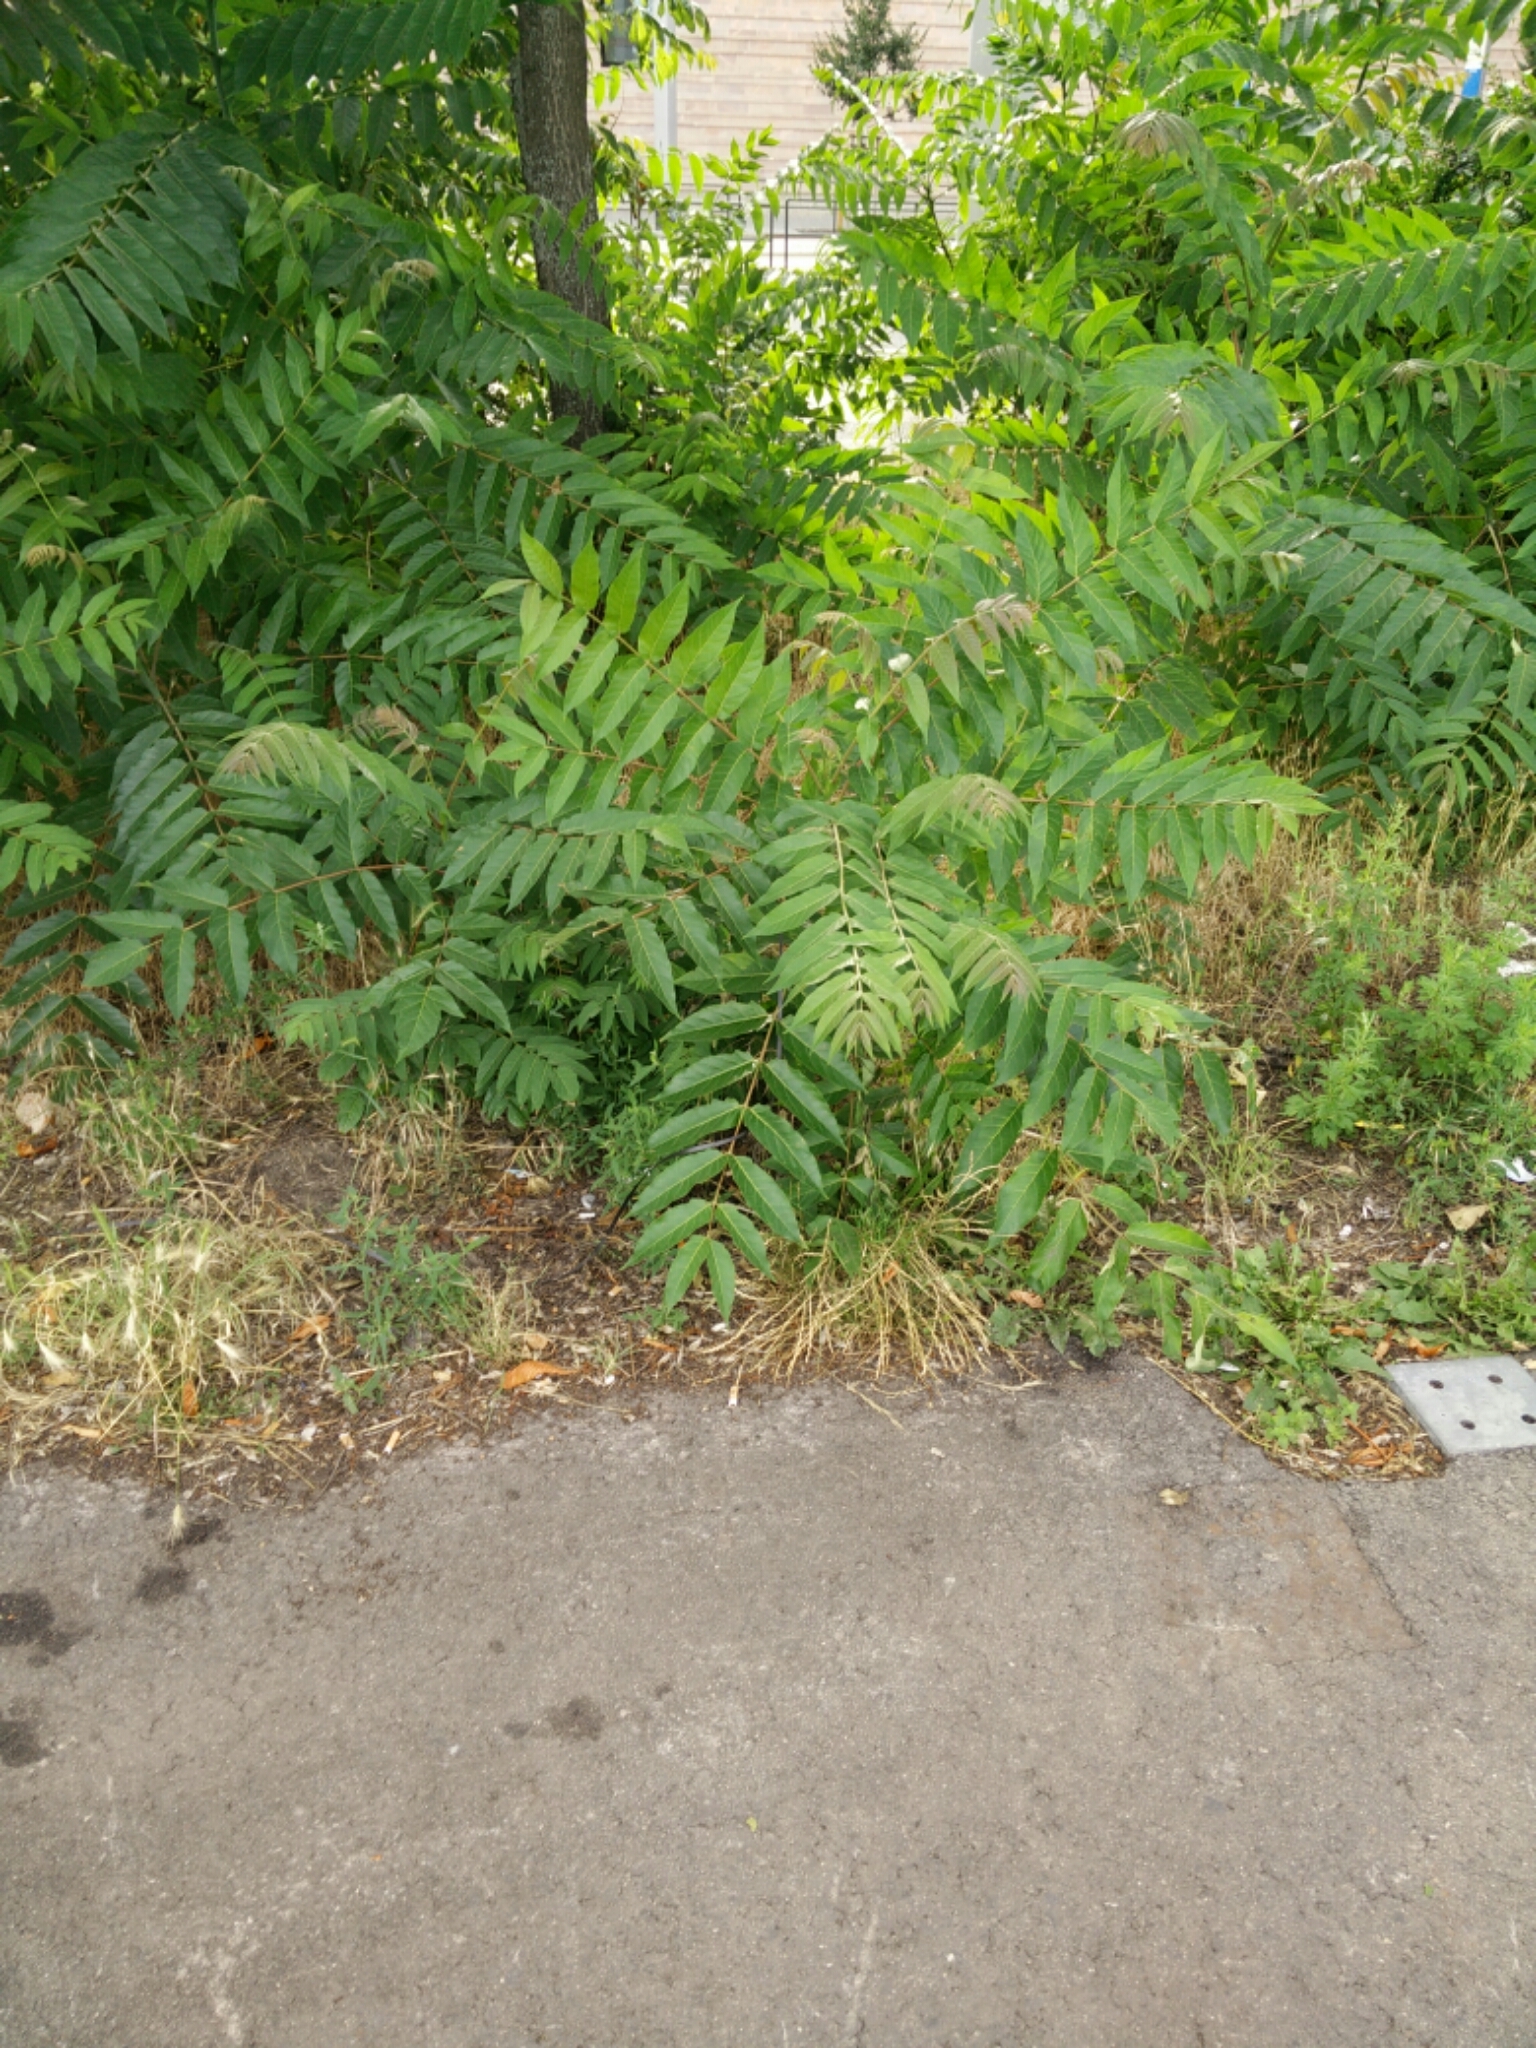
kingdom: Plantae
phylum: Tracheophyta
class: Magnoliopsida
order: Sapindales
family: Simaroubaceae
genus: Ailanthus
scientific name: Ailanthus altissima
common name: Tree-of-heaven
